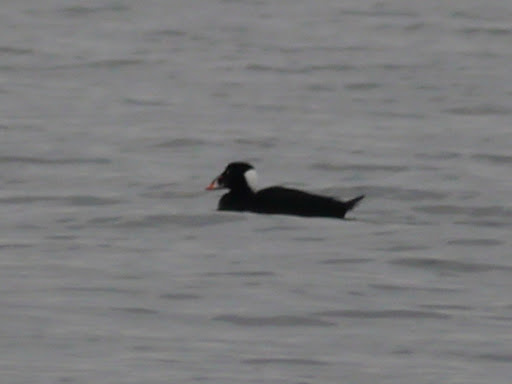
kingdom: Animalia
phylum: Chordata
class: Aves
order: Anseriformes
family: Anatidae
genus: Melanitta
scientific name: Melanitta perspicillata
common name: Surf scoter
